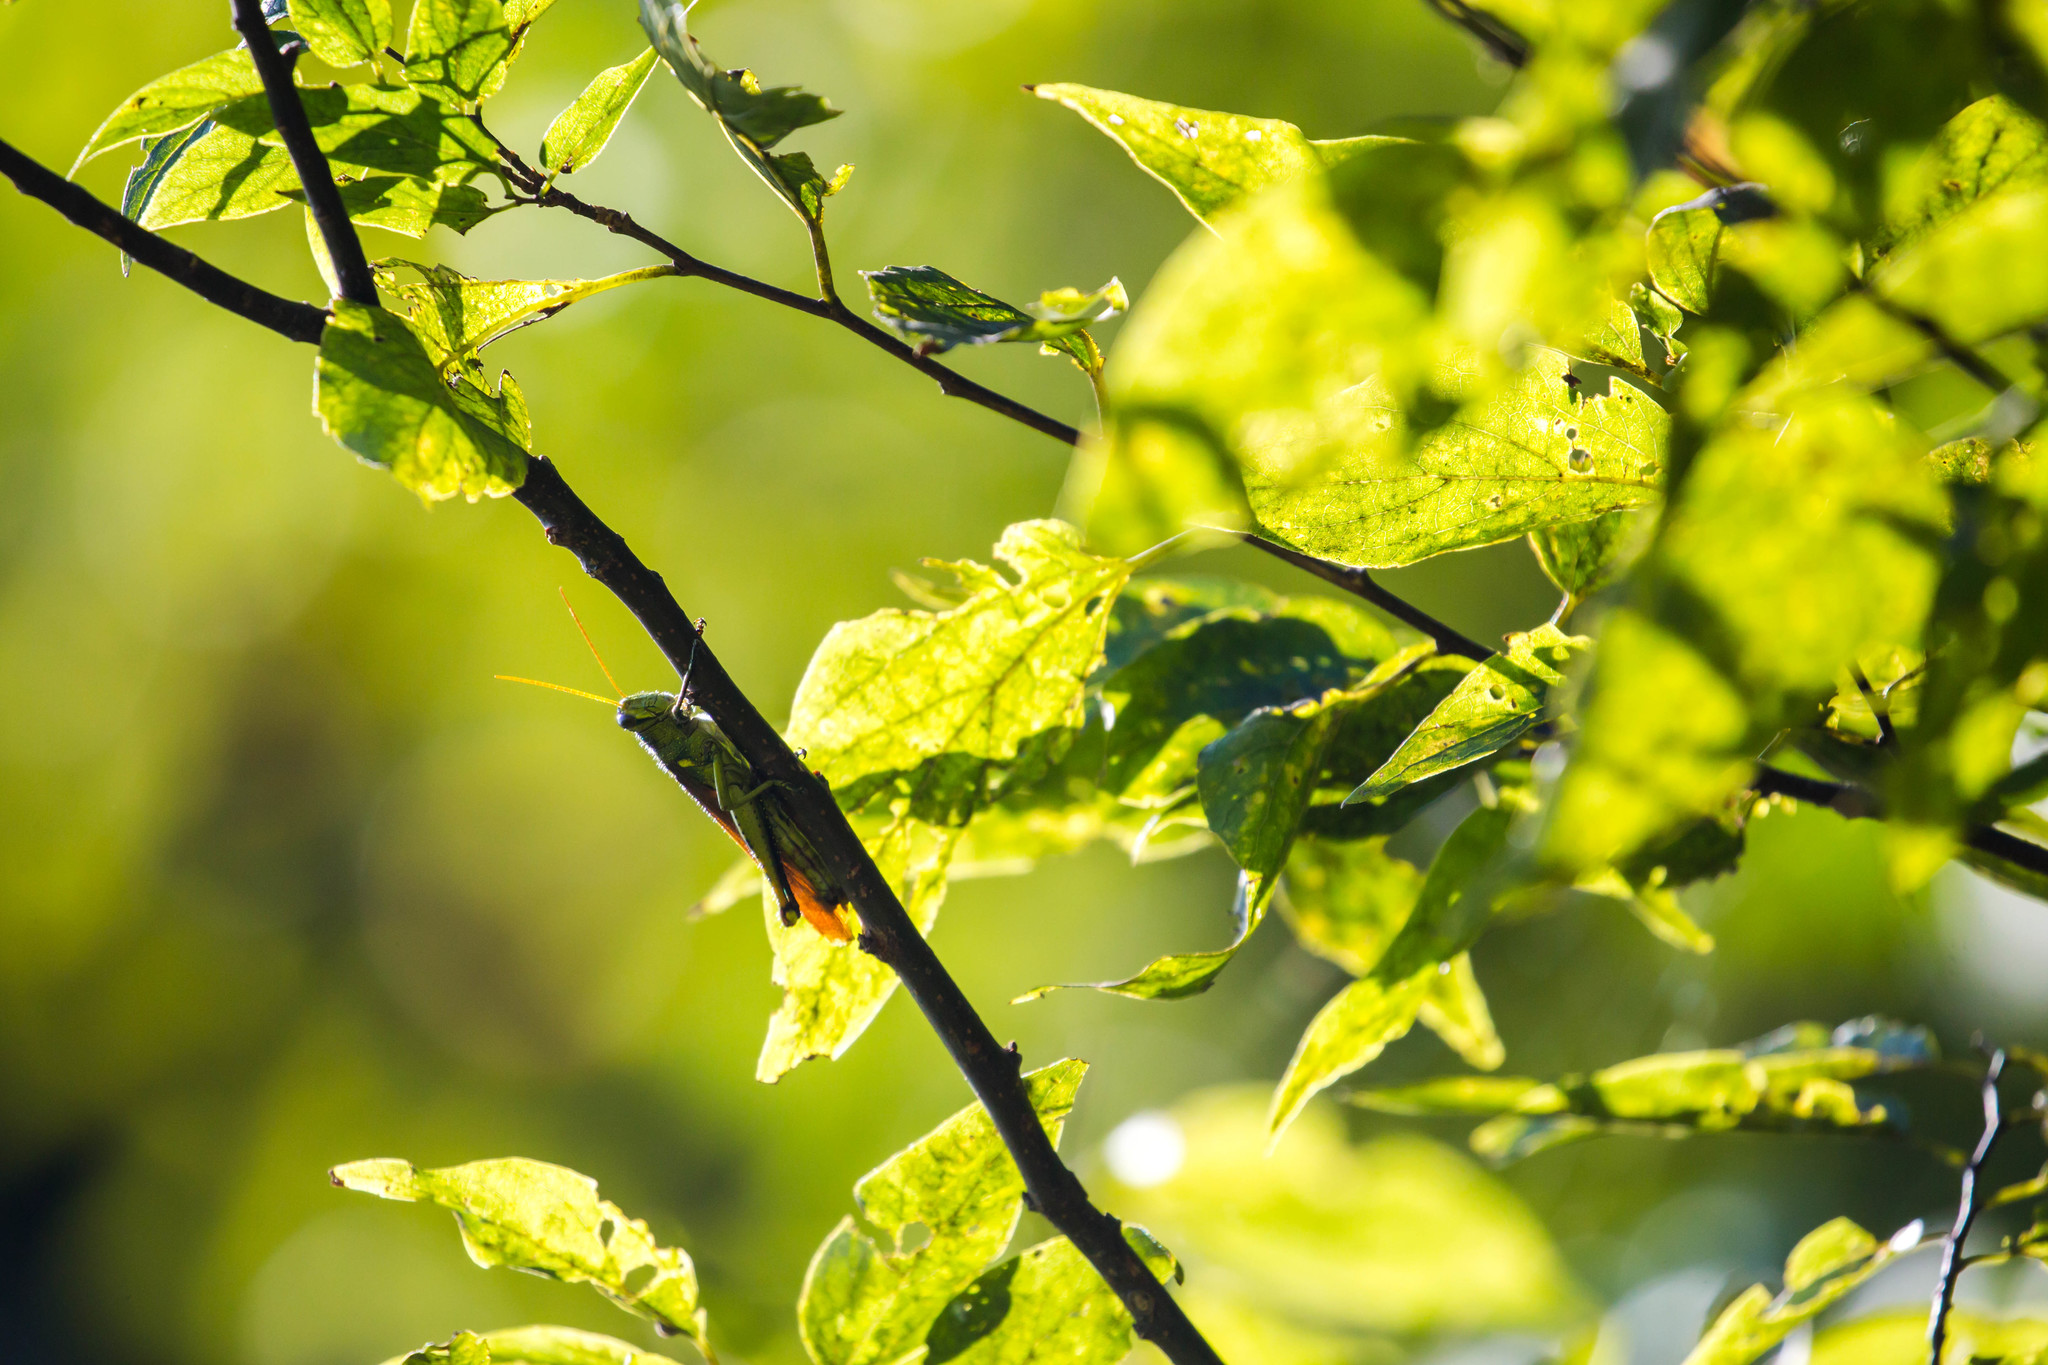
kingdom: Animalia
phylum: Arthropoda
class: Insecta
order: Orthoptera
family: Acrididae
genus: Schistocerca
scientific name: Schistocerca obscura
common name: Obscure bird grasshopper
